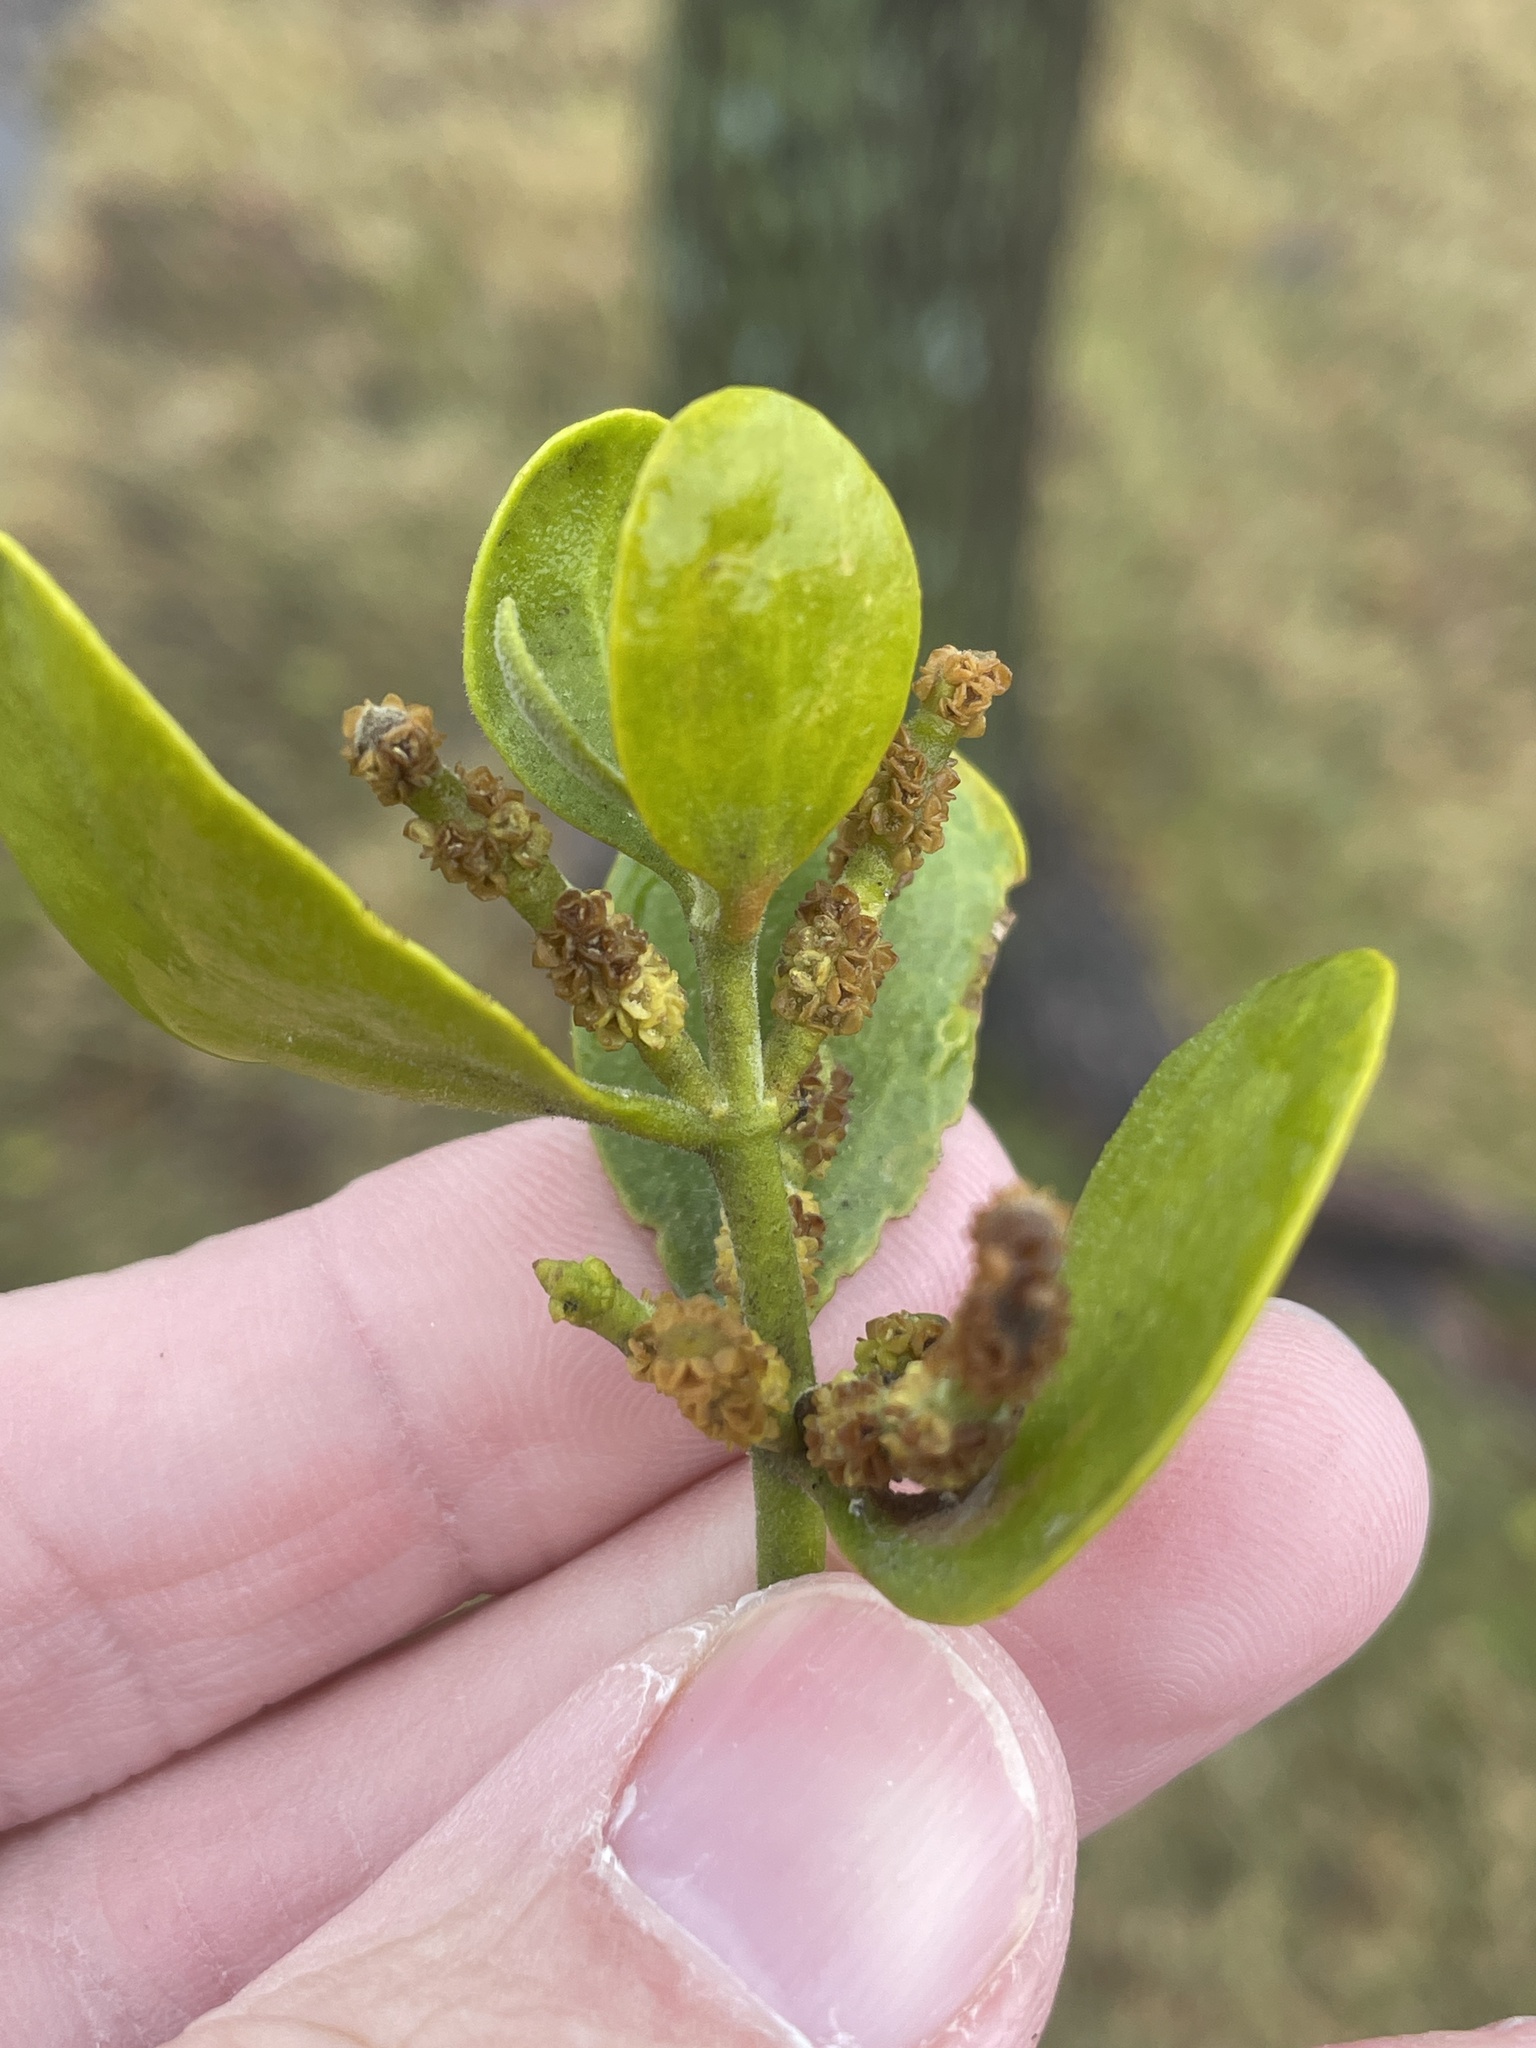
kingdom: Plantae
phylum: Tracheophyta
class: Magnoliopsida
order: Santalales
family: Viscaceae
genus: Phoradendron
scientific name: Phoradendron leucarpum
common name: Pacific mistletoe
